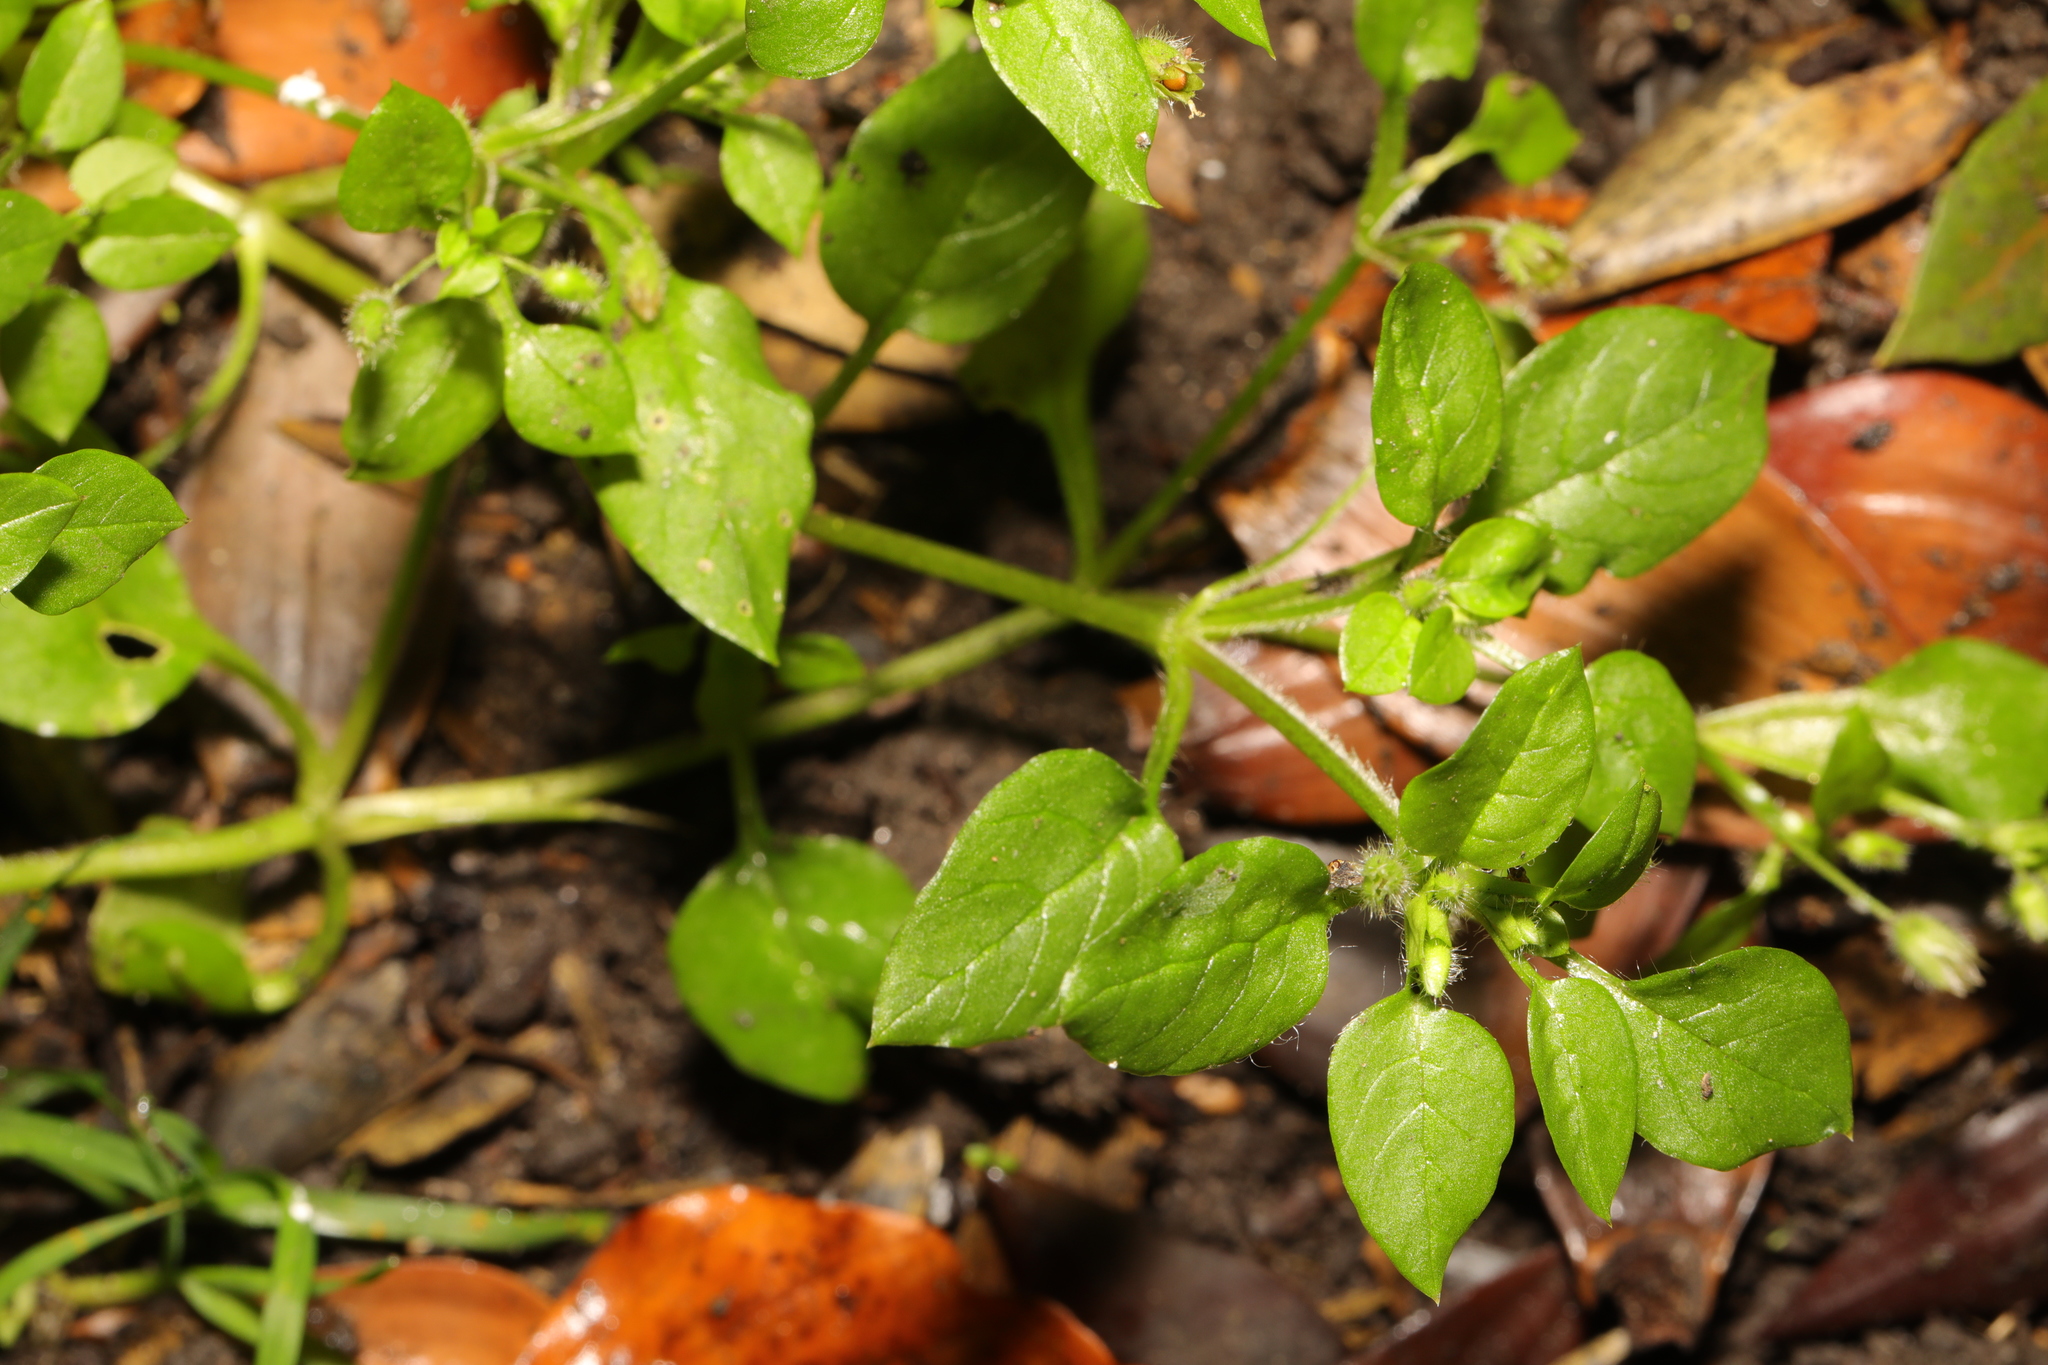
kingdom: Plantae
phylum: Tracheophyta
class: Magnoliopsida
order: Caryophyllales
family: Caryophyllaceae
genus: Stellaria
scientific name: Stellaria media
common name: Common chickweed
